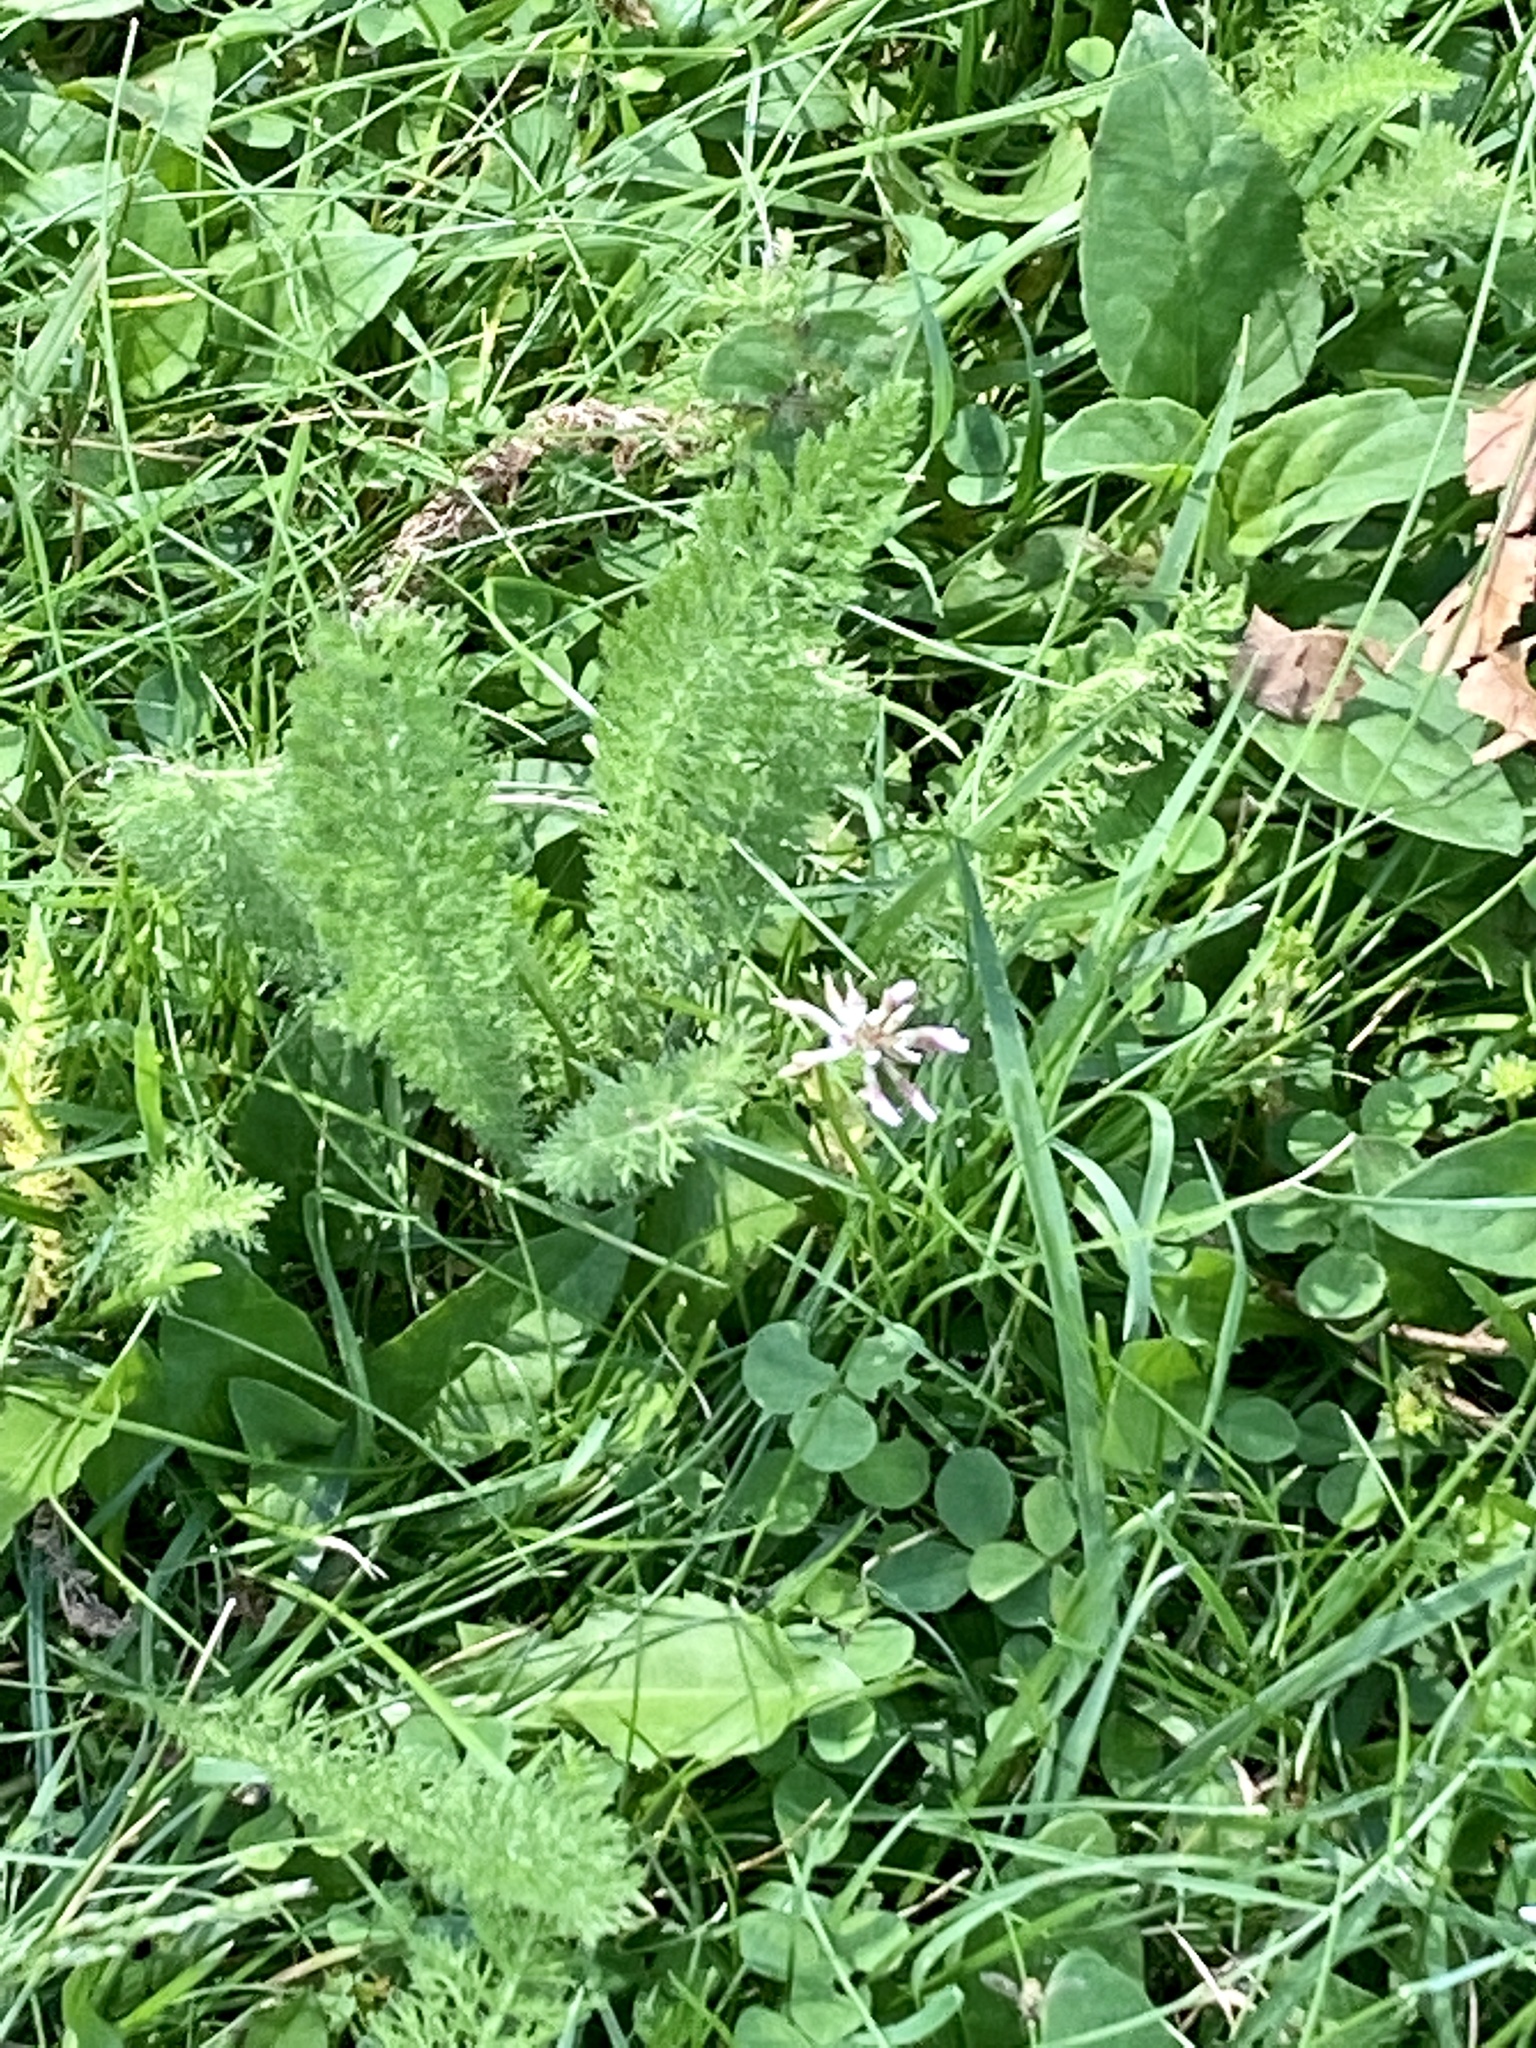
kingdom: Plantae
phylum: Tracheophyta
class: Magnoliopsida
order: Asterales
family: Asteraceae
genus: Achillea
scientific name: Achillea millefolium
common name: Yarrow
